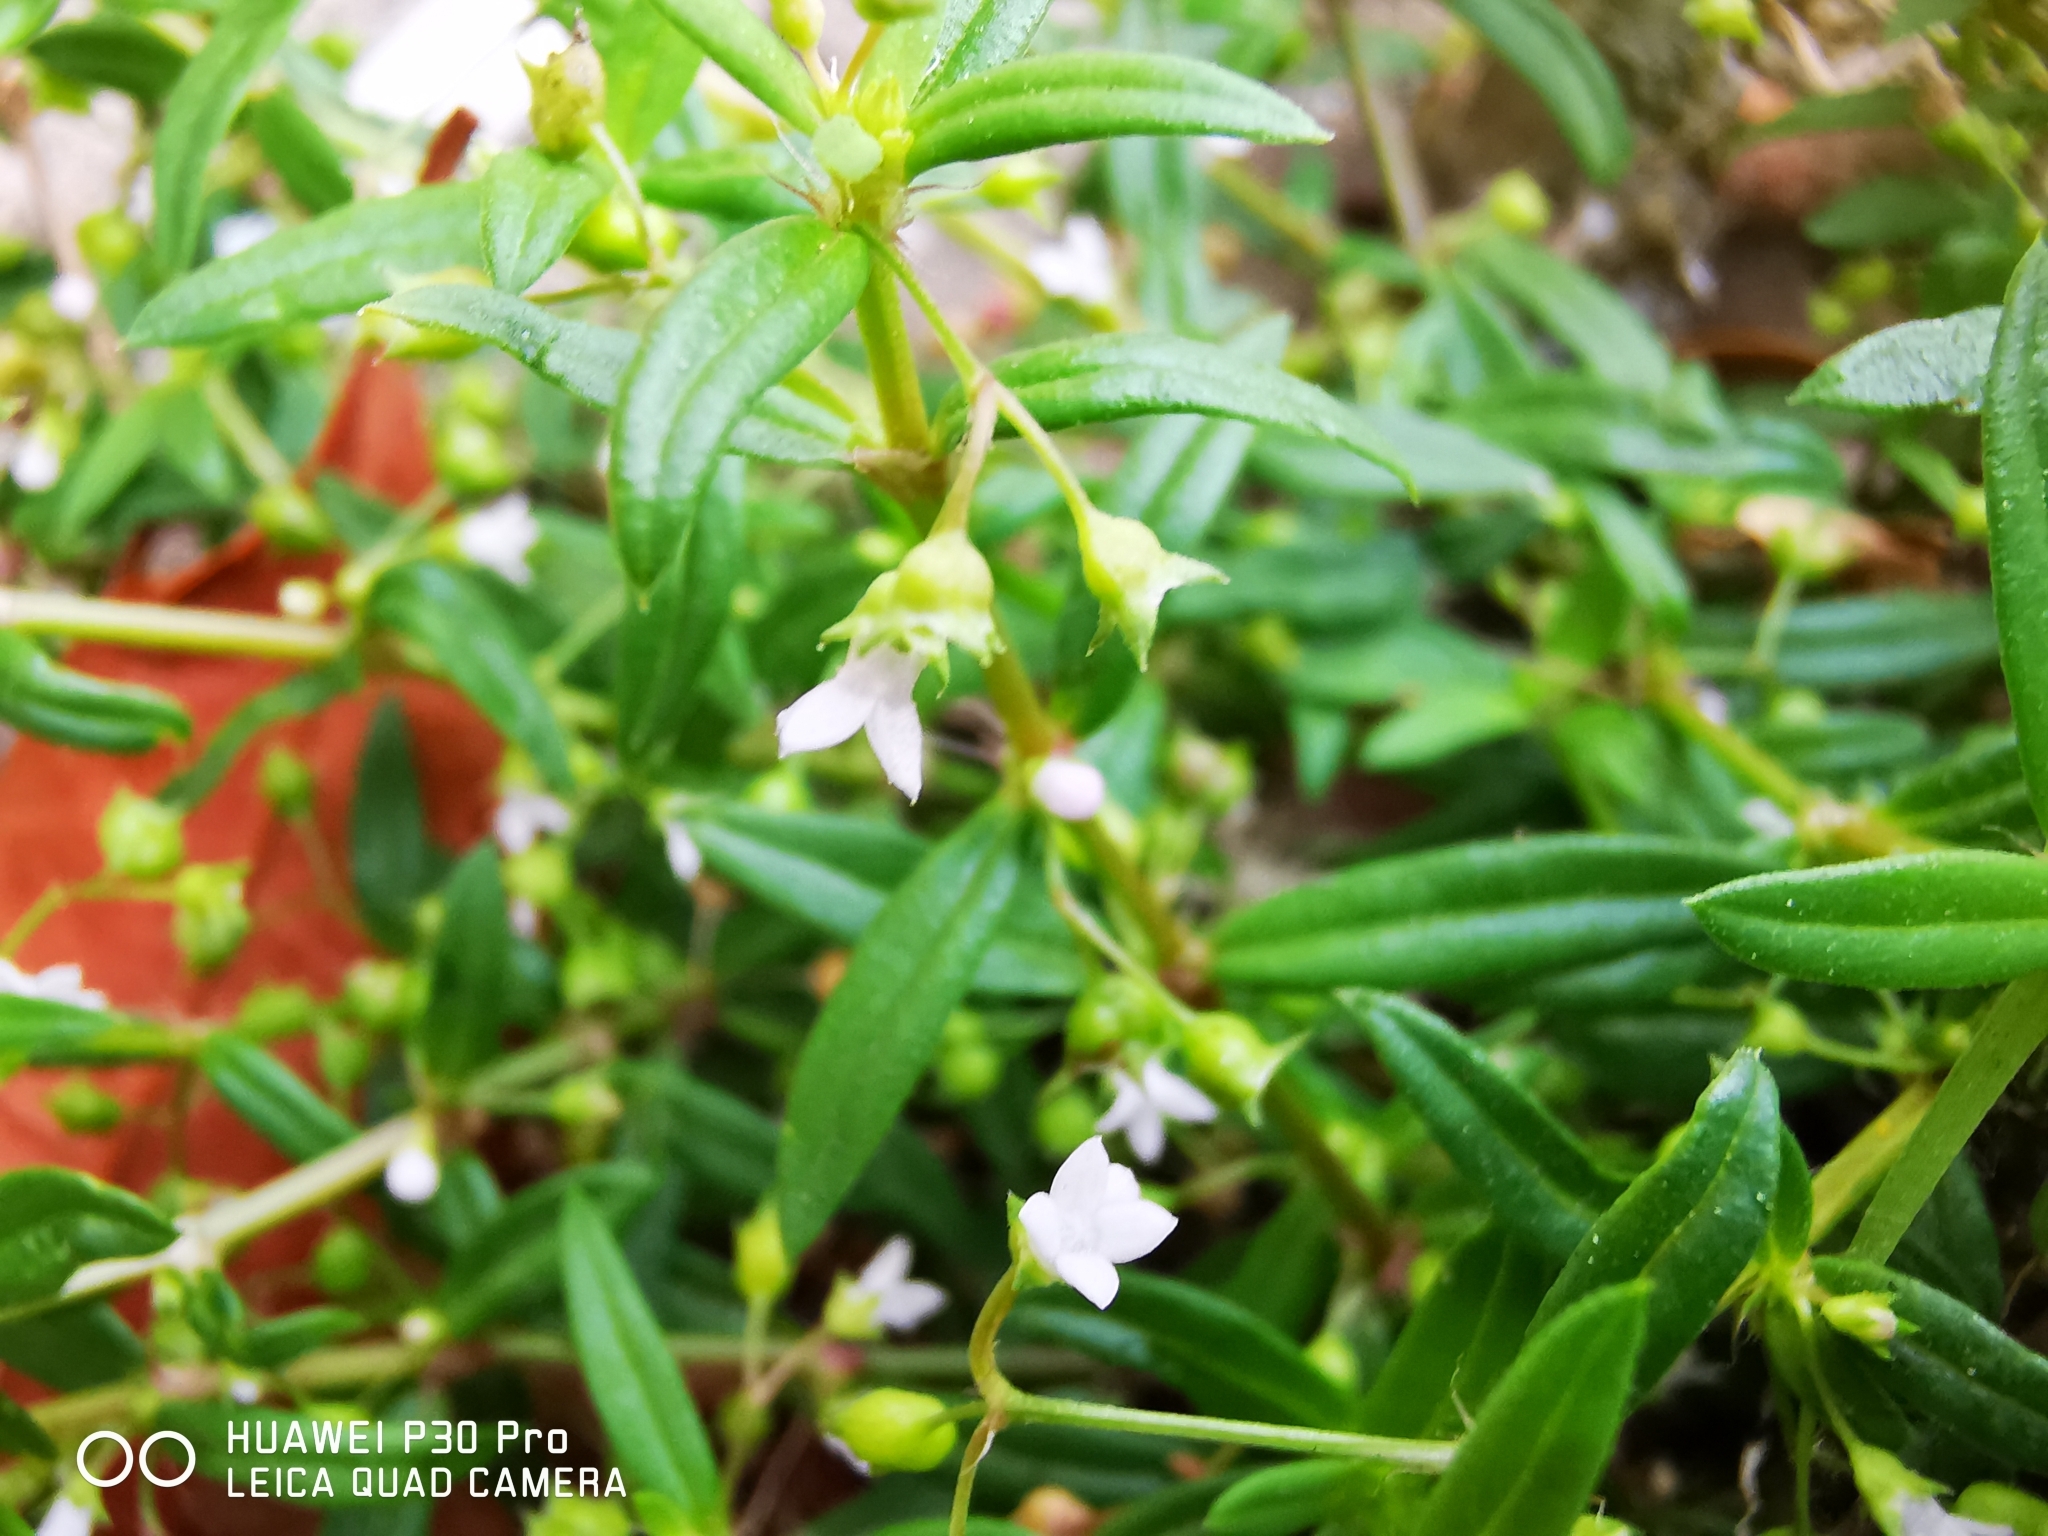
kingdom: Plantae
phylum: Tracheophyta
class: Magnoliopsida
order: Gentianales
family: Rubiaceae
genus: Oldenlandia
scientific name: Oldenlandia corymbosa
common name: Flat-top mille graines
